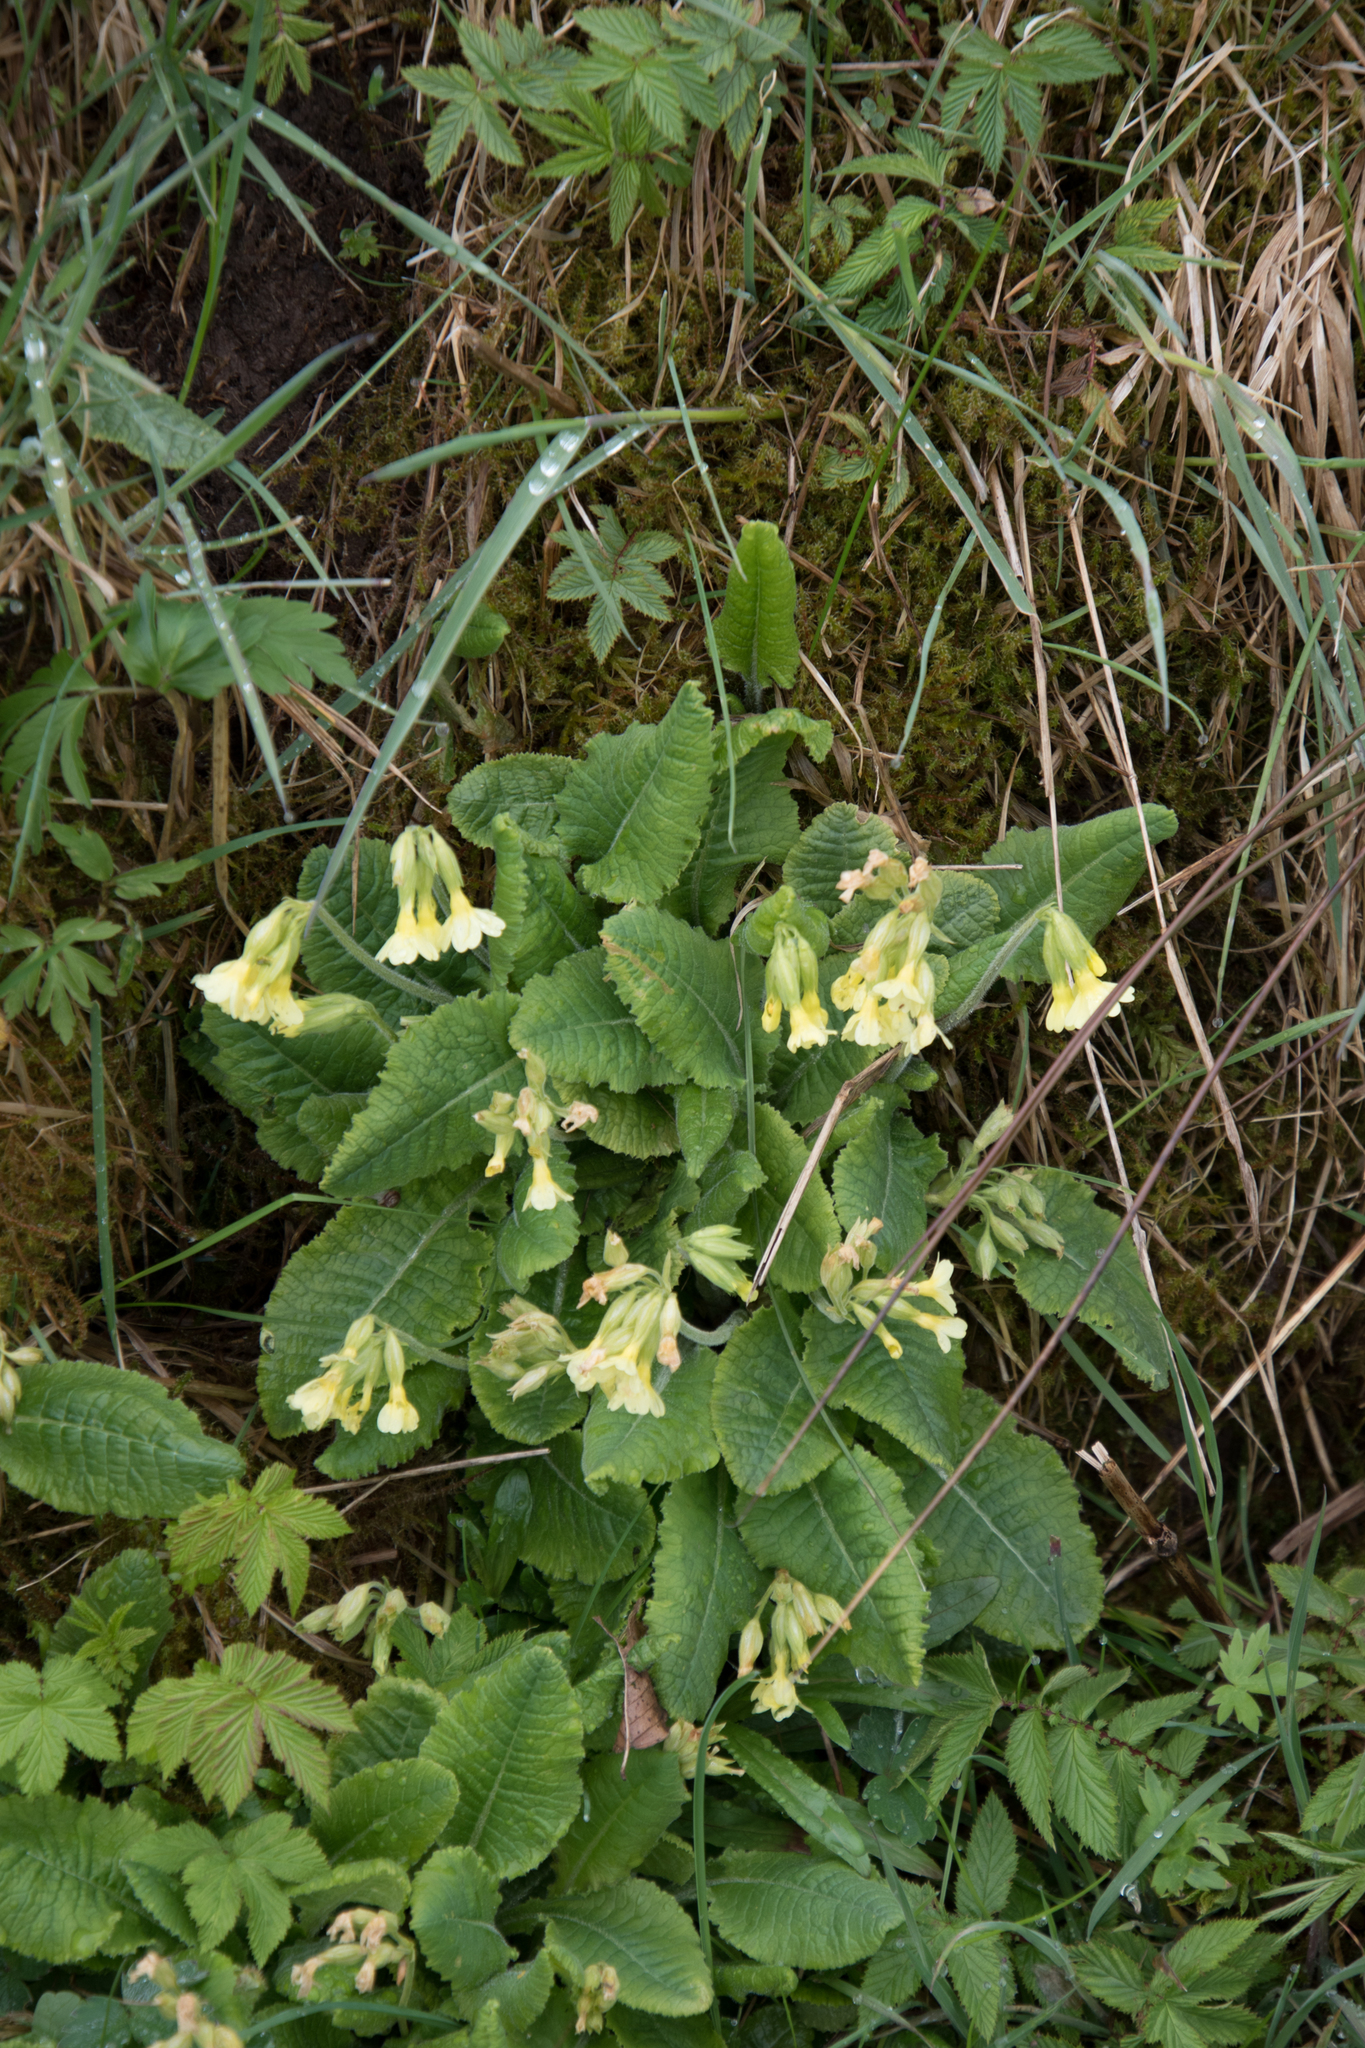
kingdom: Plantae
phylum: Tracheophyta
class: Magnoliopsida
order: Ericales
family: Primulaceae
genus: Primula
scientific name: Primula elatior
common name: Oxlip
